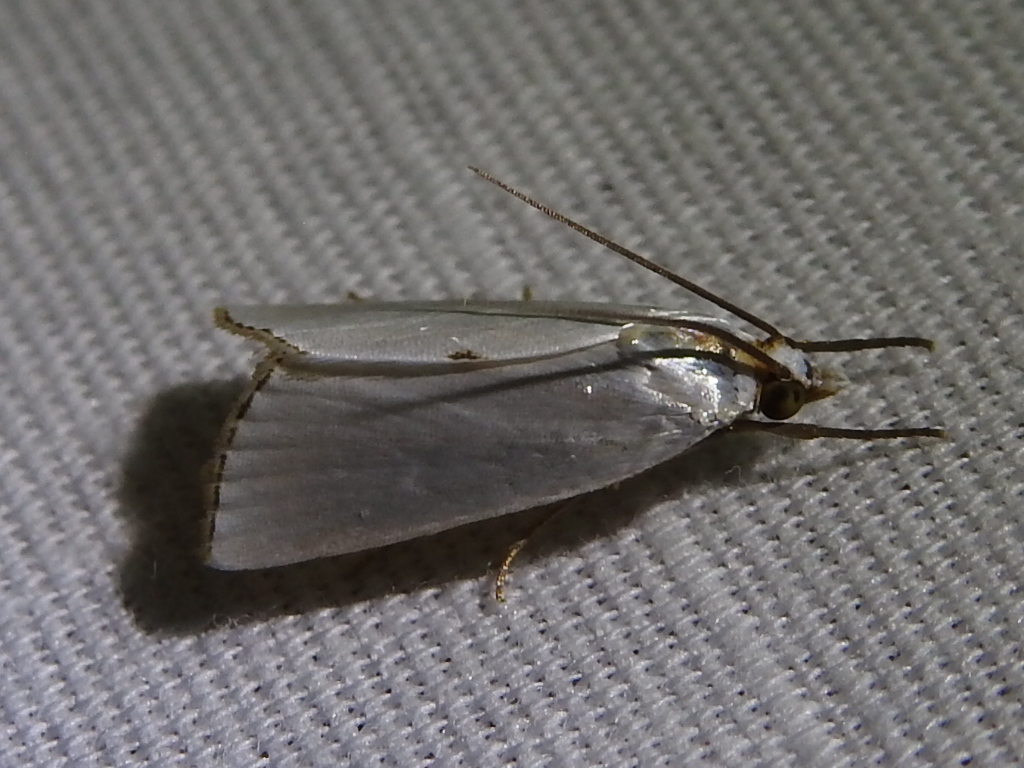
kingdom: Animalia
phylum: Arthropoda
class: Insecta
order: Lepidoptera
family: Crambidae
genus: Argyria
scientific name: Argyria nivalis
